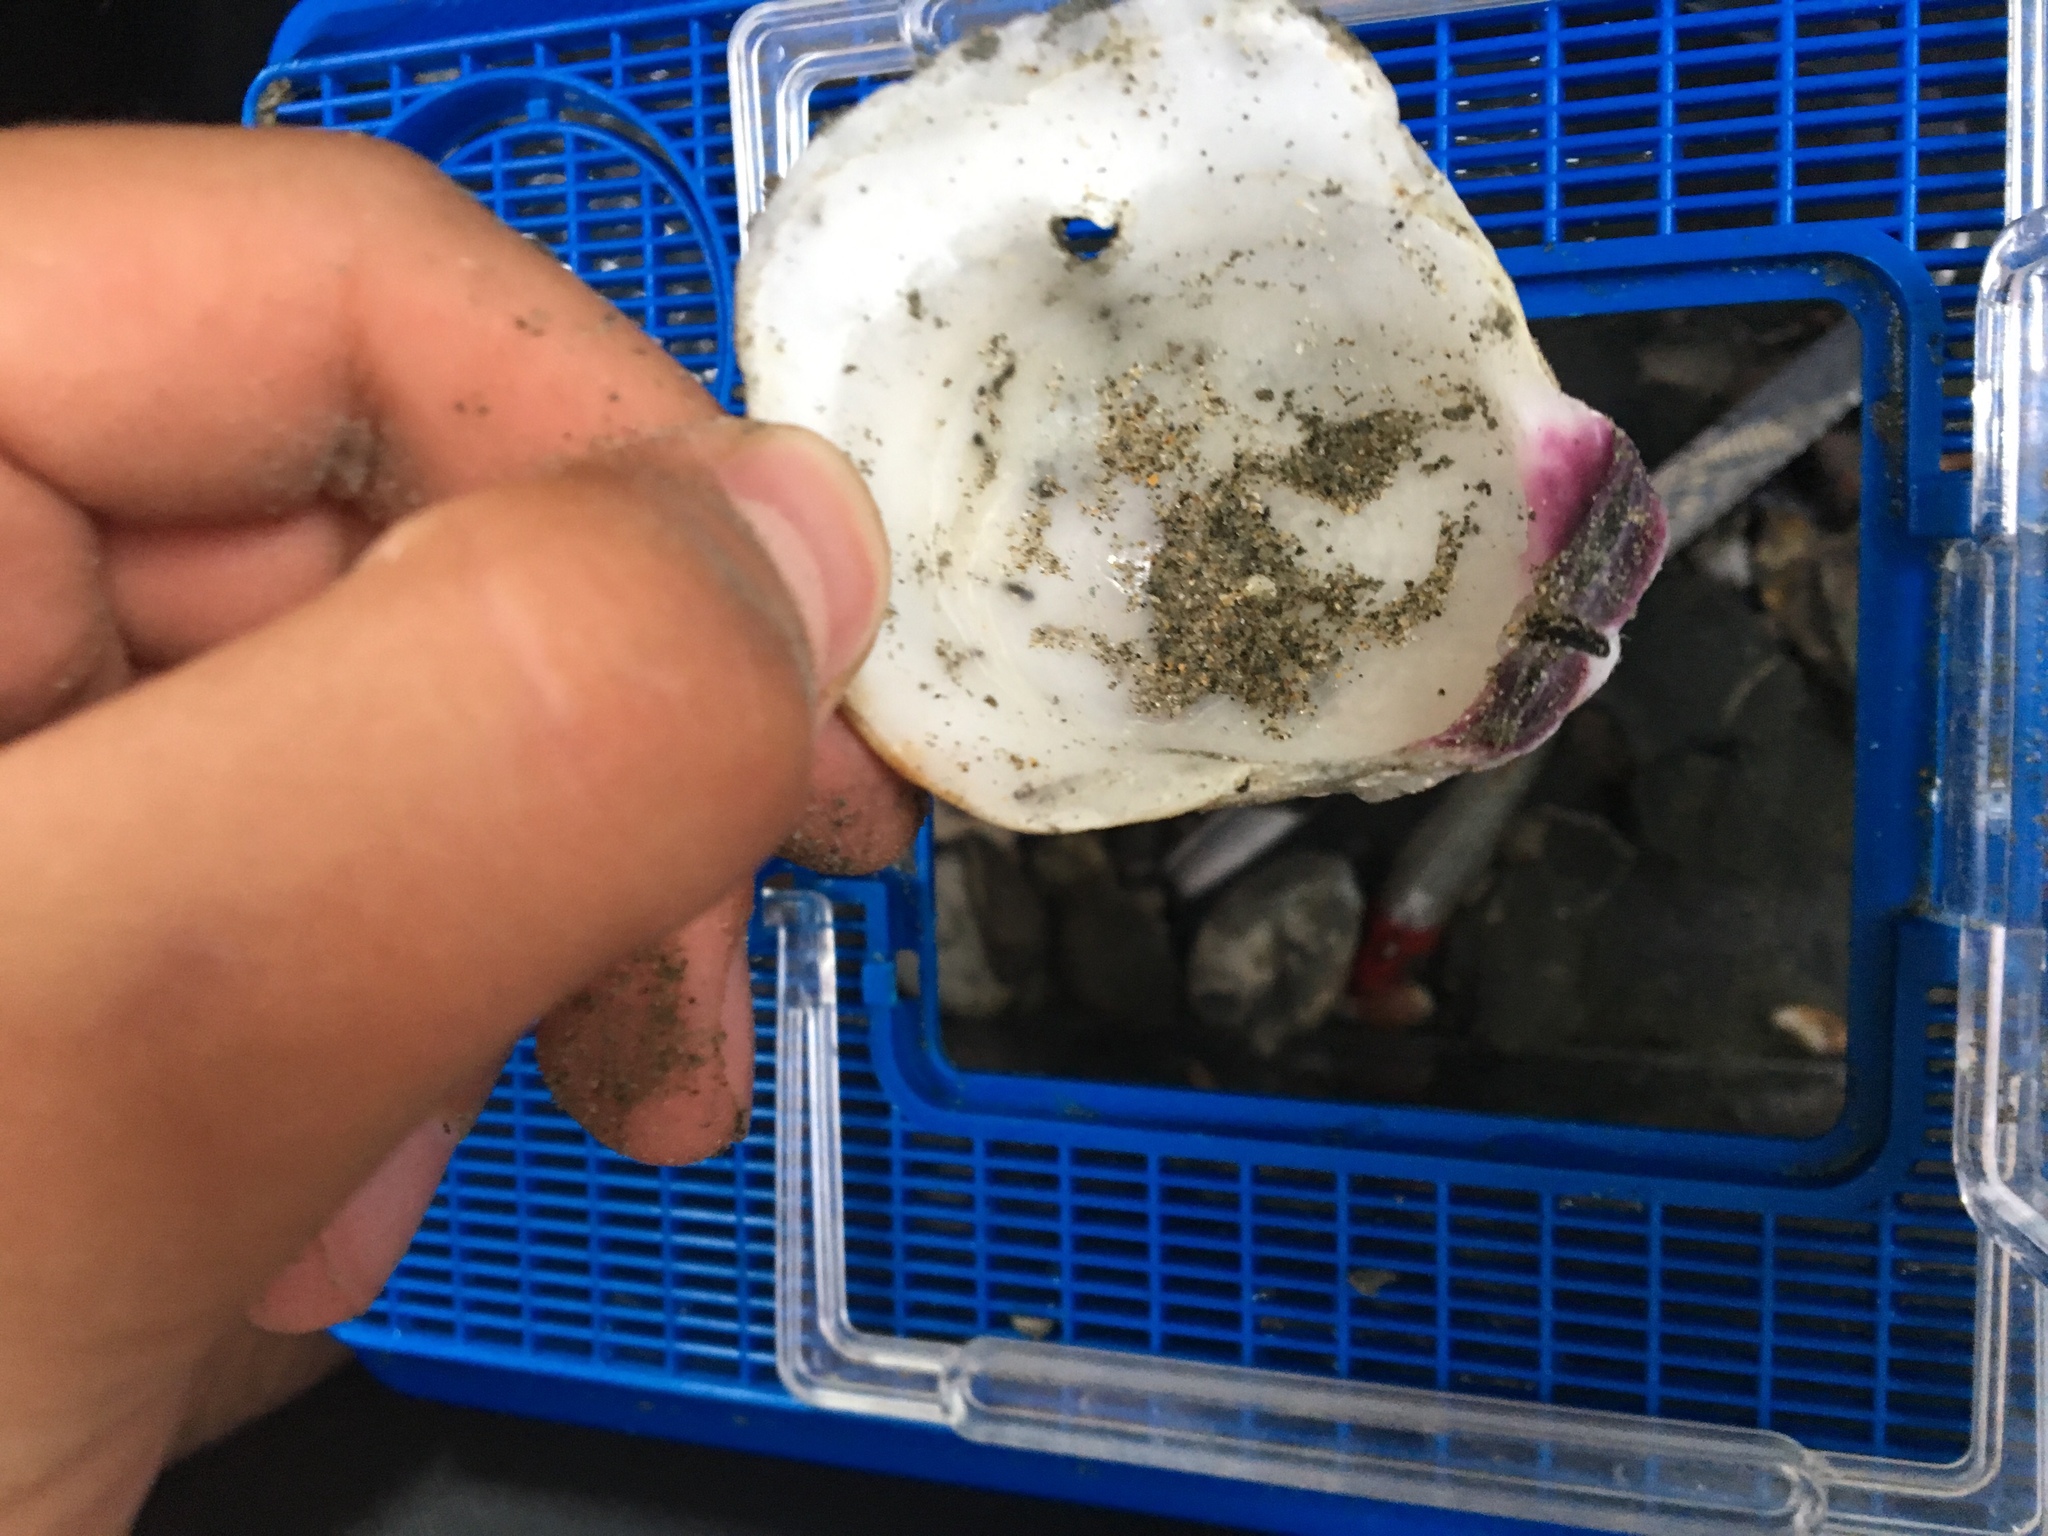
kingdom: Animalia
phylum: Mollusca
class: Bivalvia
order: Pectinida
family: Pectinidae
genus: Crassadoma
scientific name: Crassadoma gigantea
